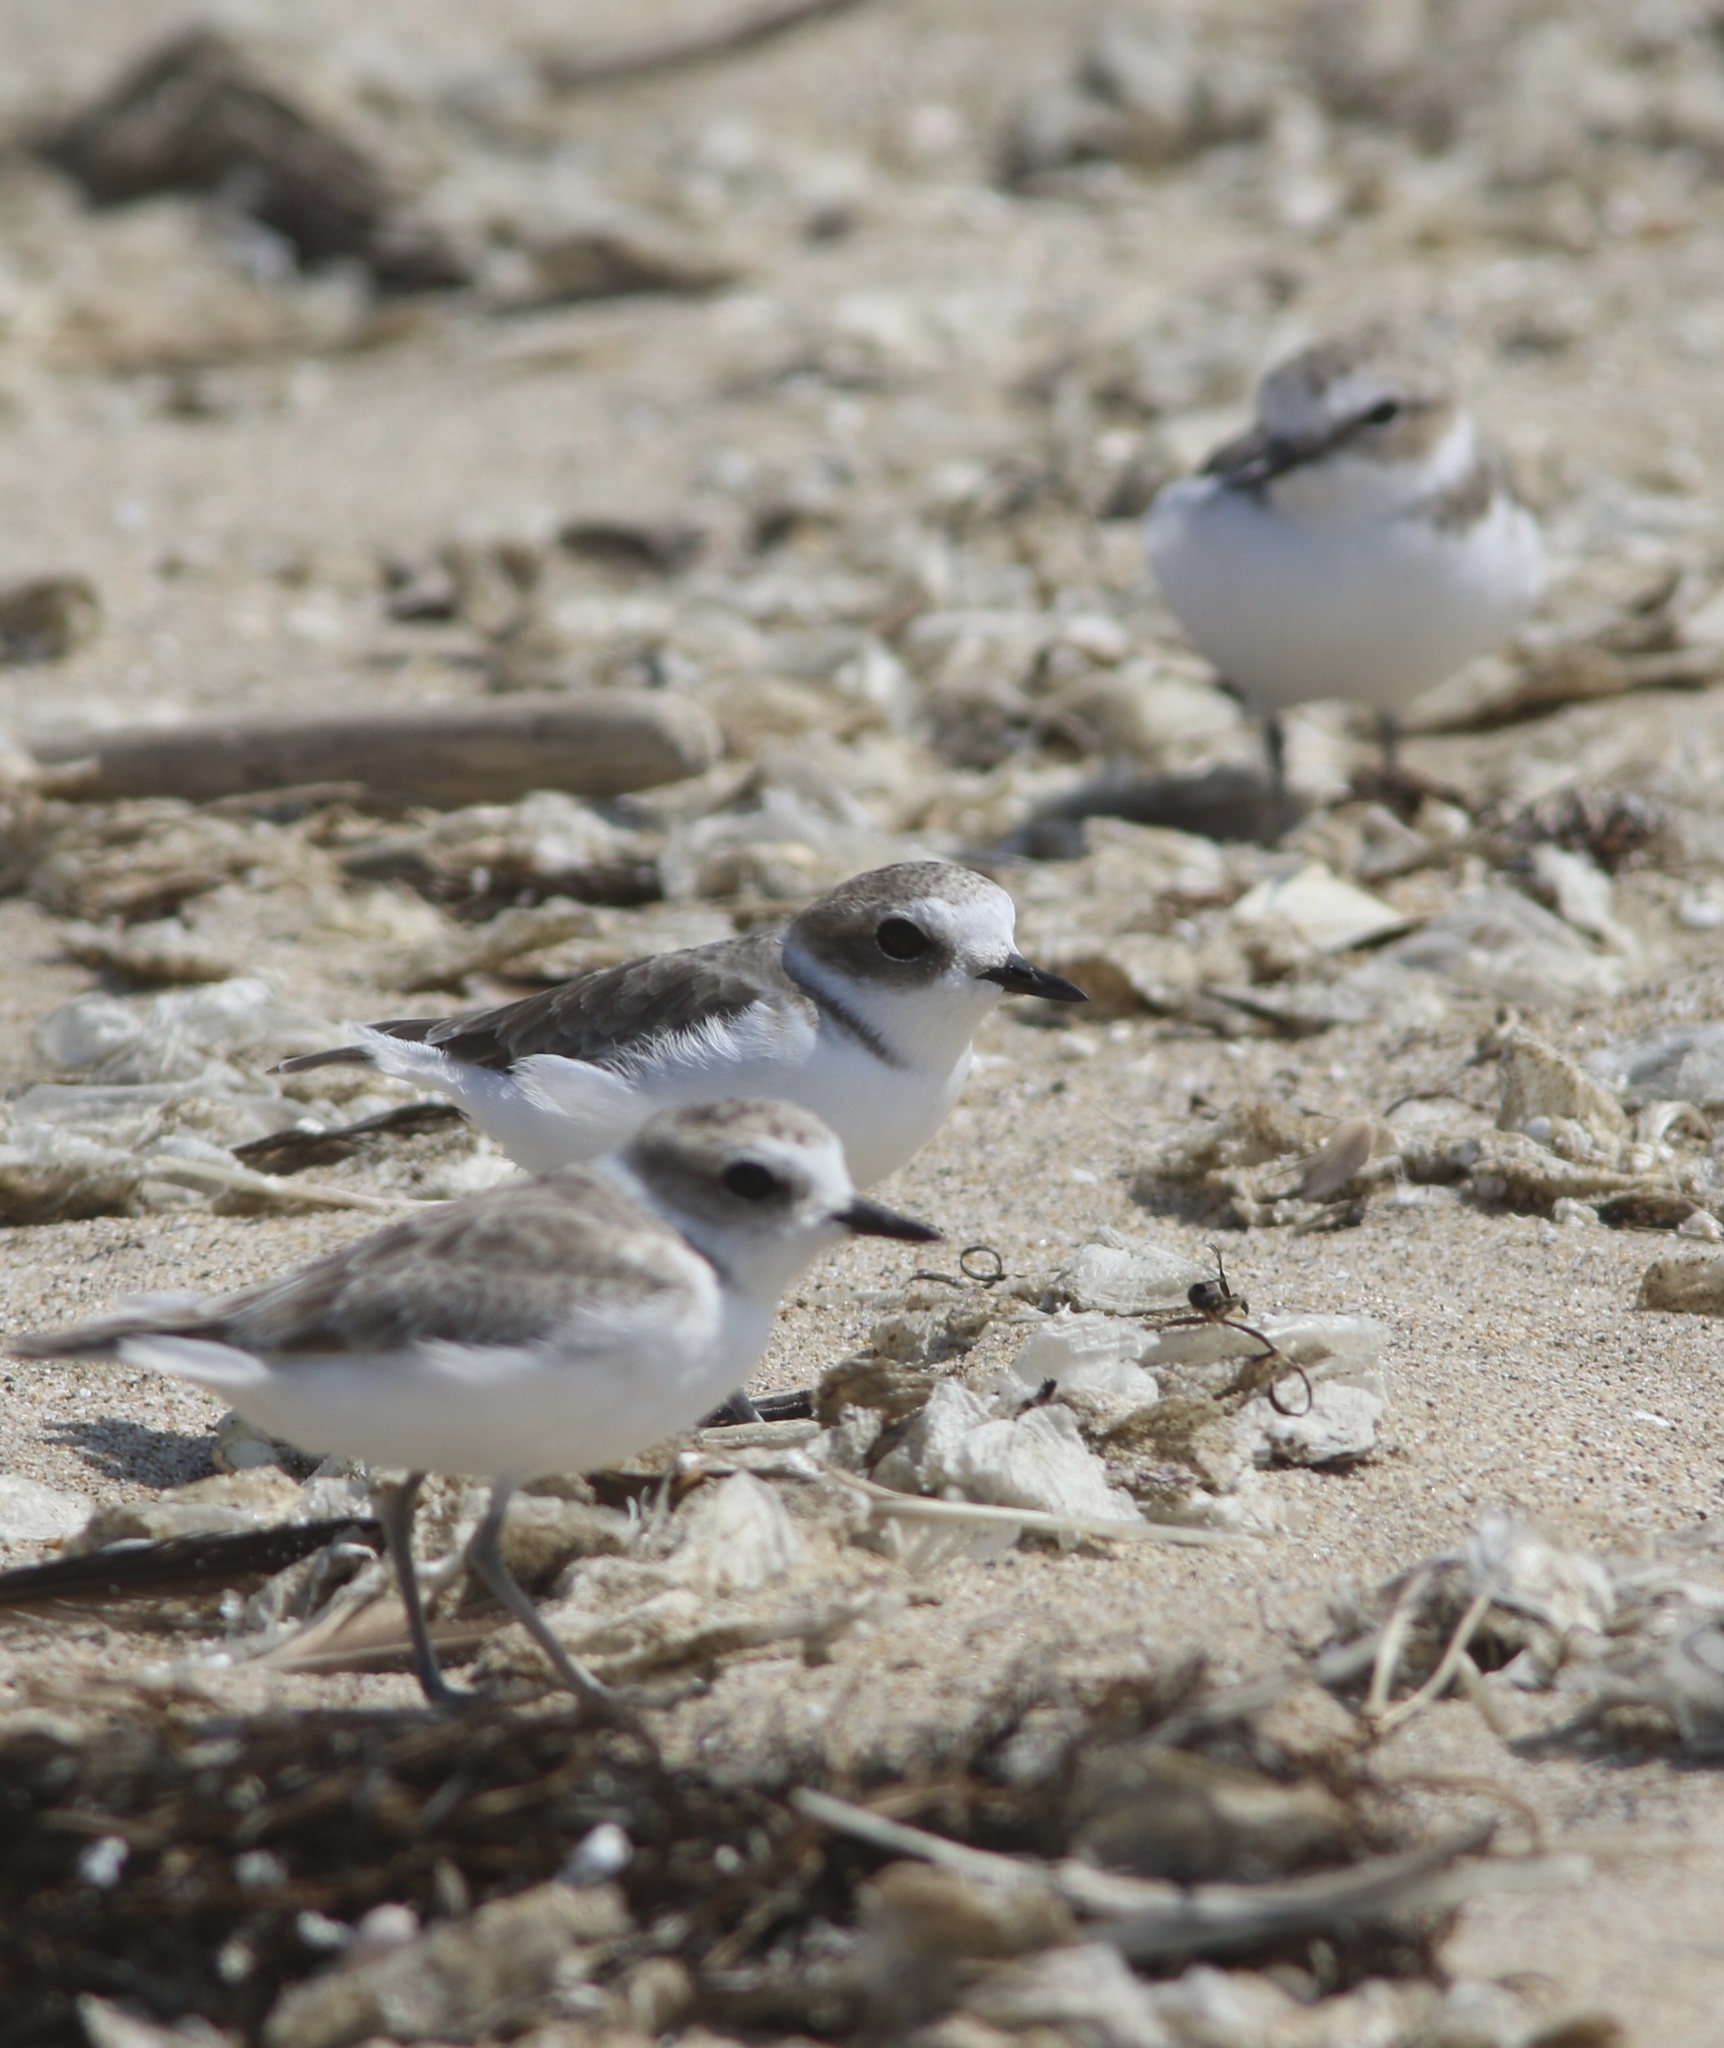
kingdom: Animalia
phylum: Chordata
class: Aves
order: Charadriiformes
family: Charadriidae
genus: Anarhynchus
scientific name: Anarhynchus
